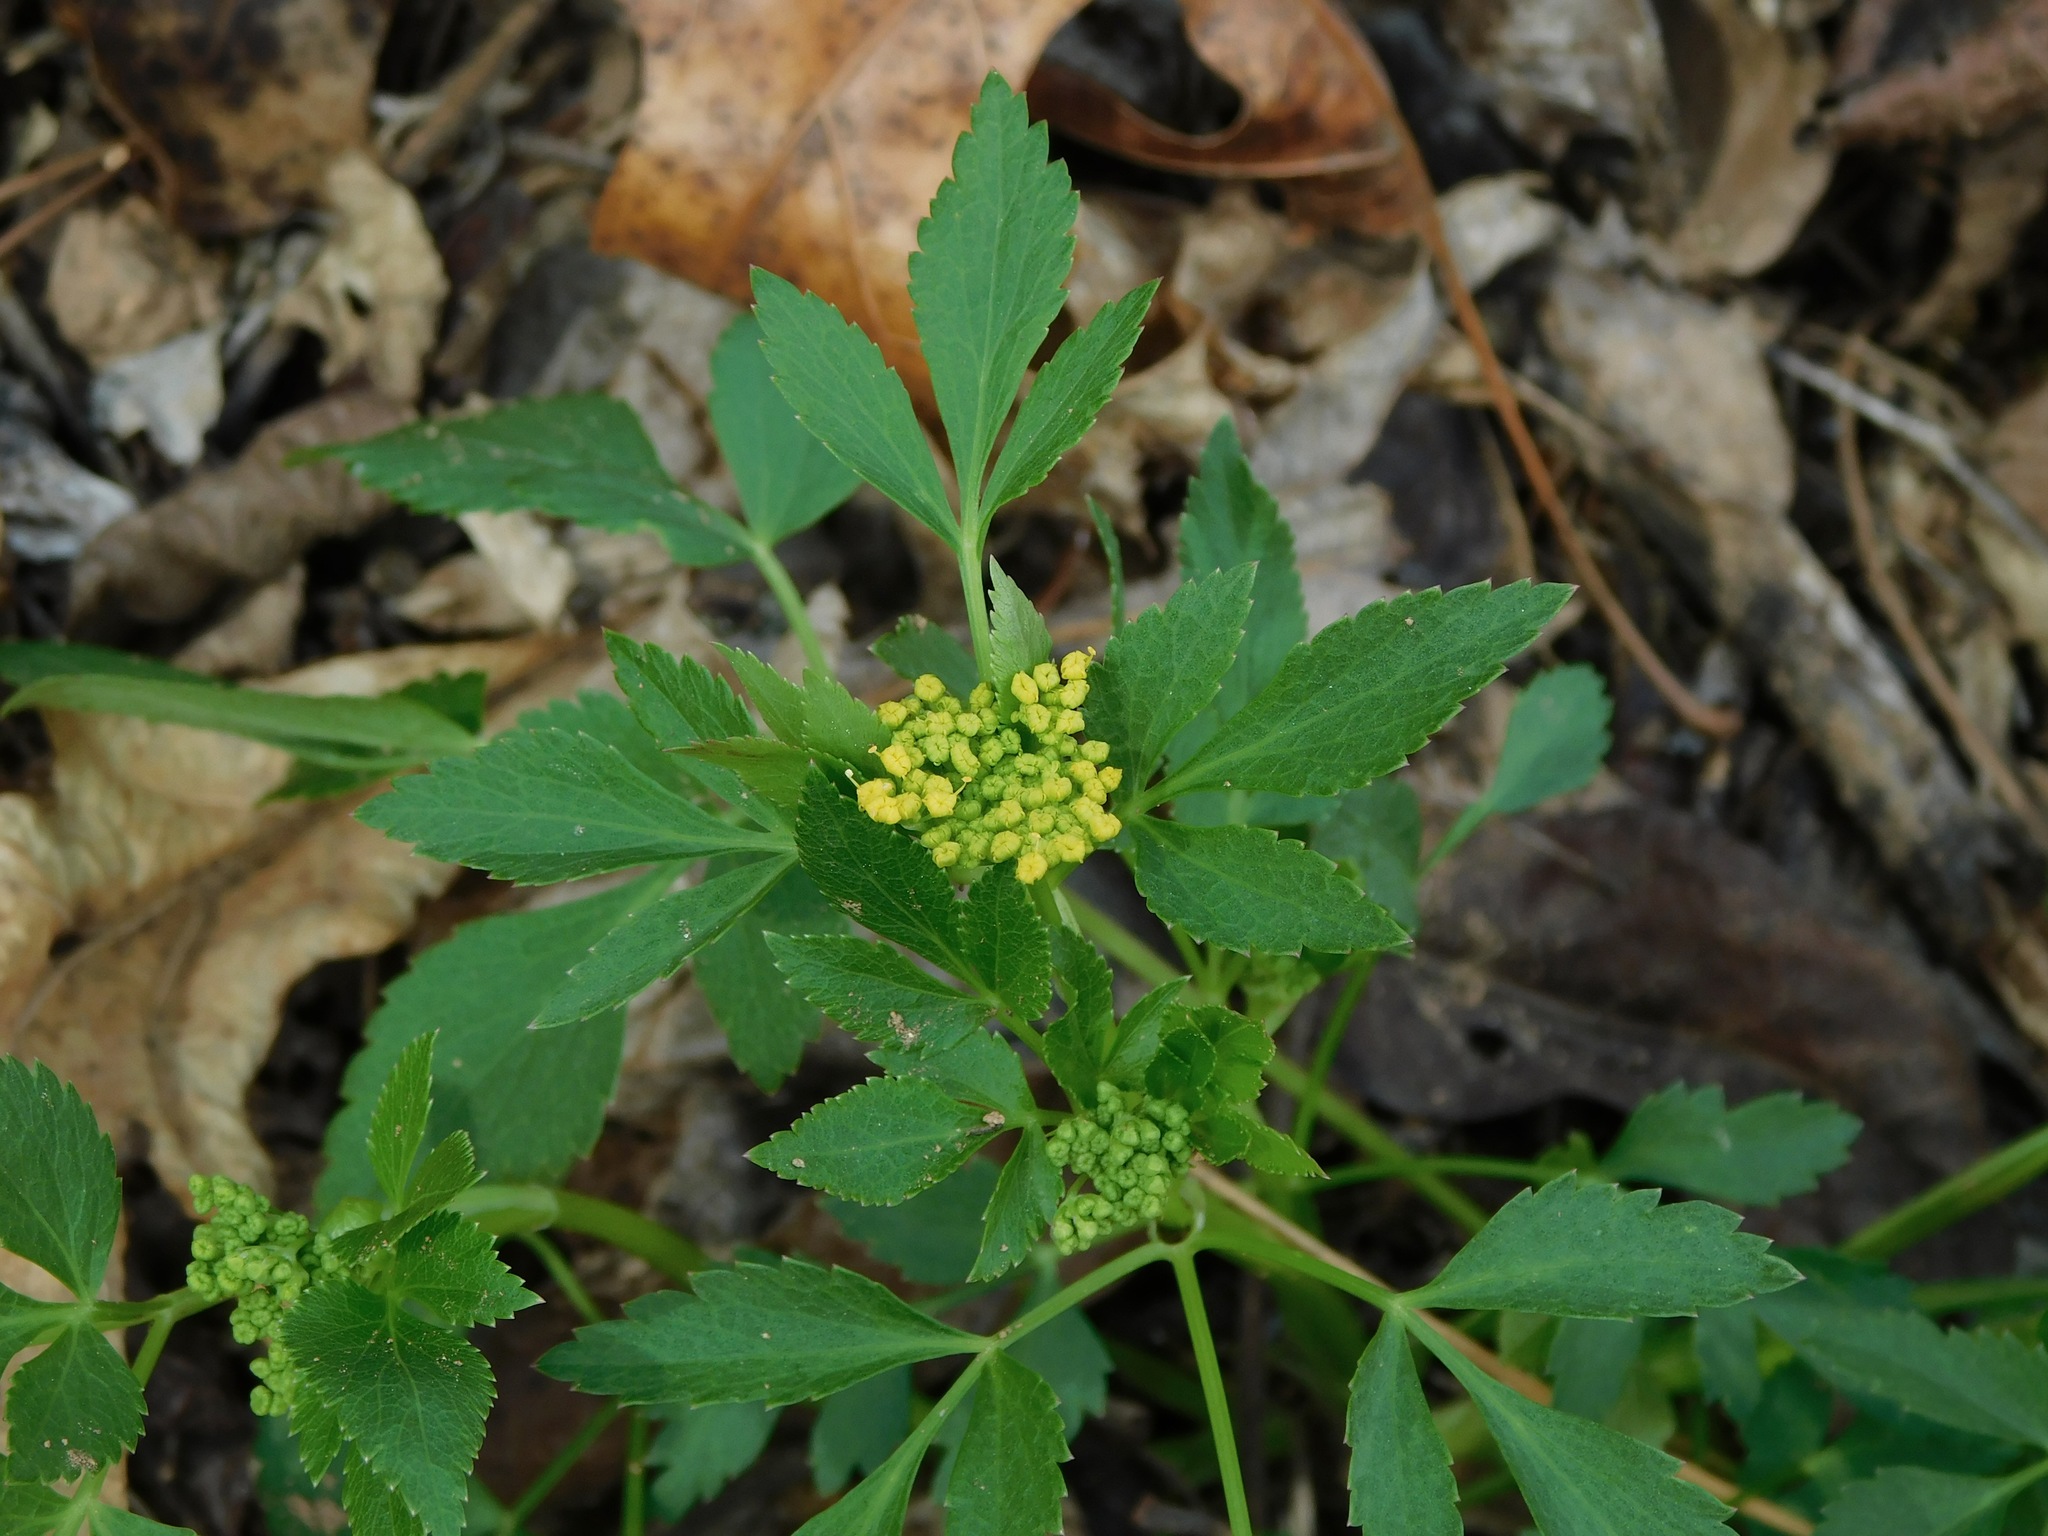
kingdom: Plantae
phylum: Tracheophyta
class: Magnoliopsida
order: Apiales
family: Apiaceae
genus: Zizia
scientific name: Zizia aurea
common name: Golden alexanders
